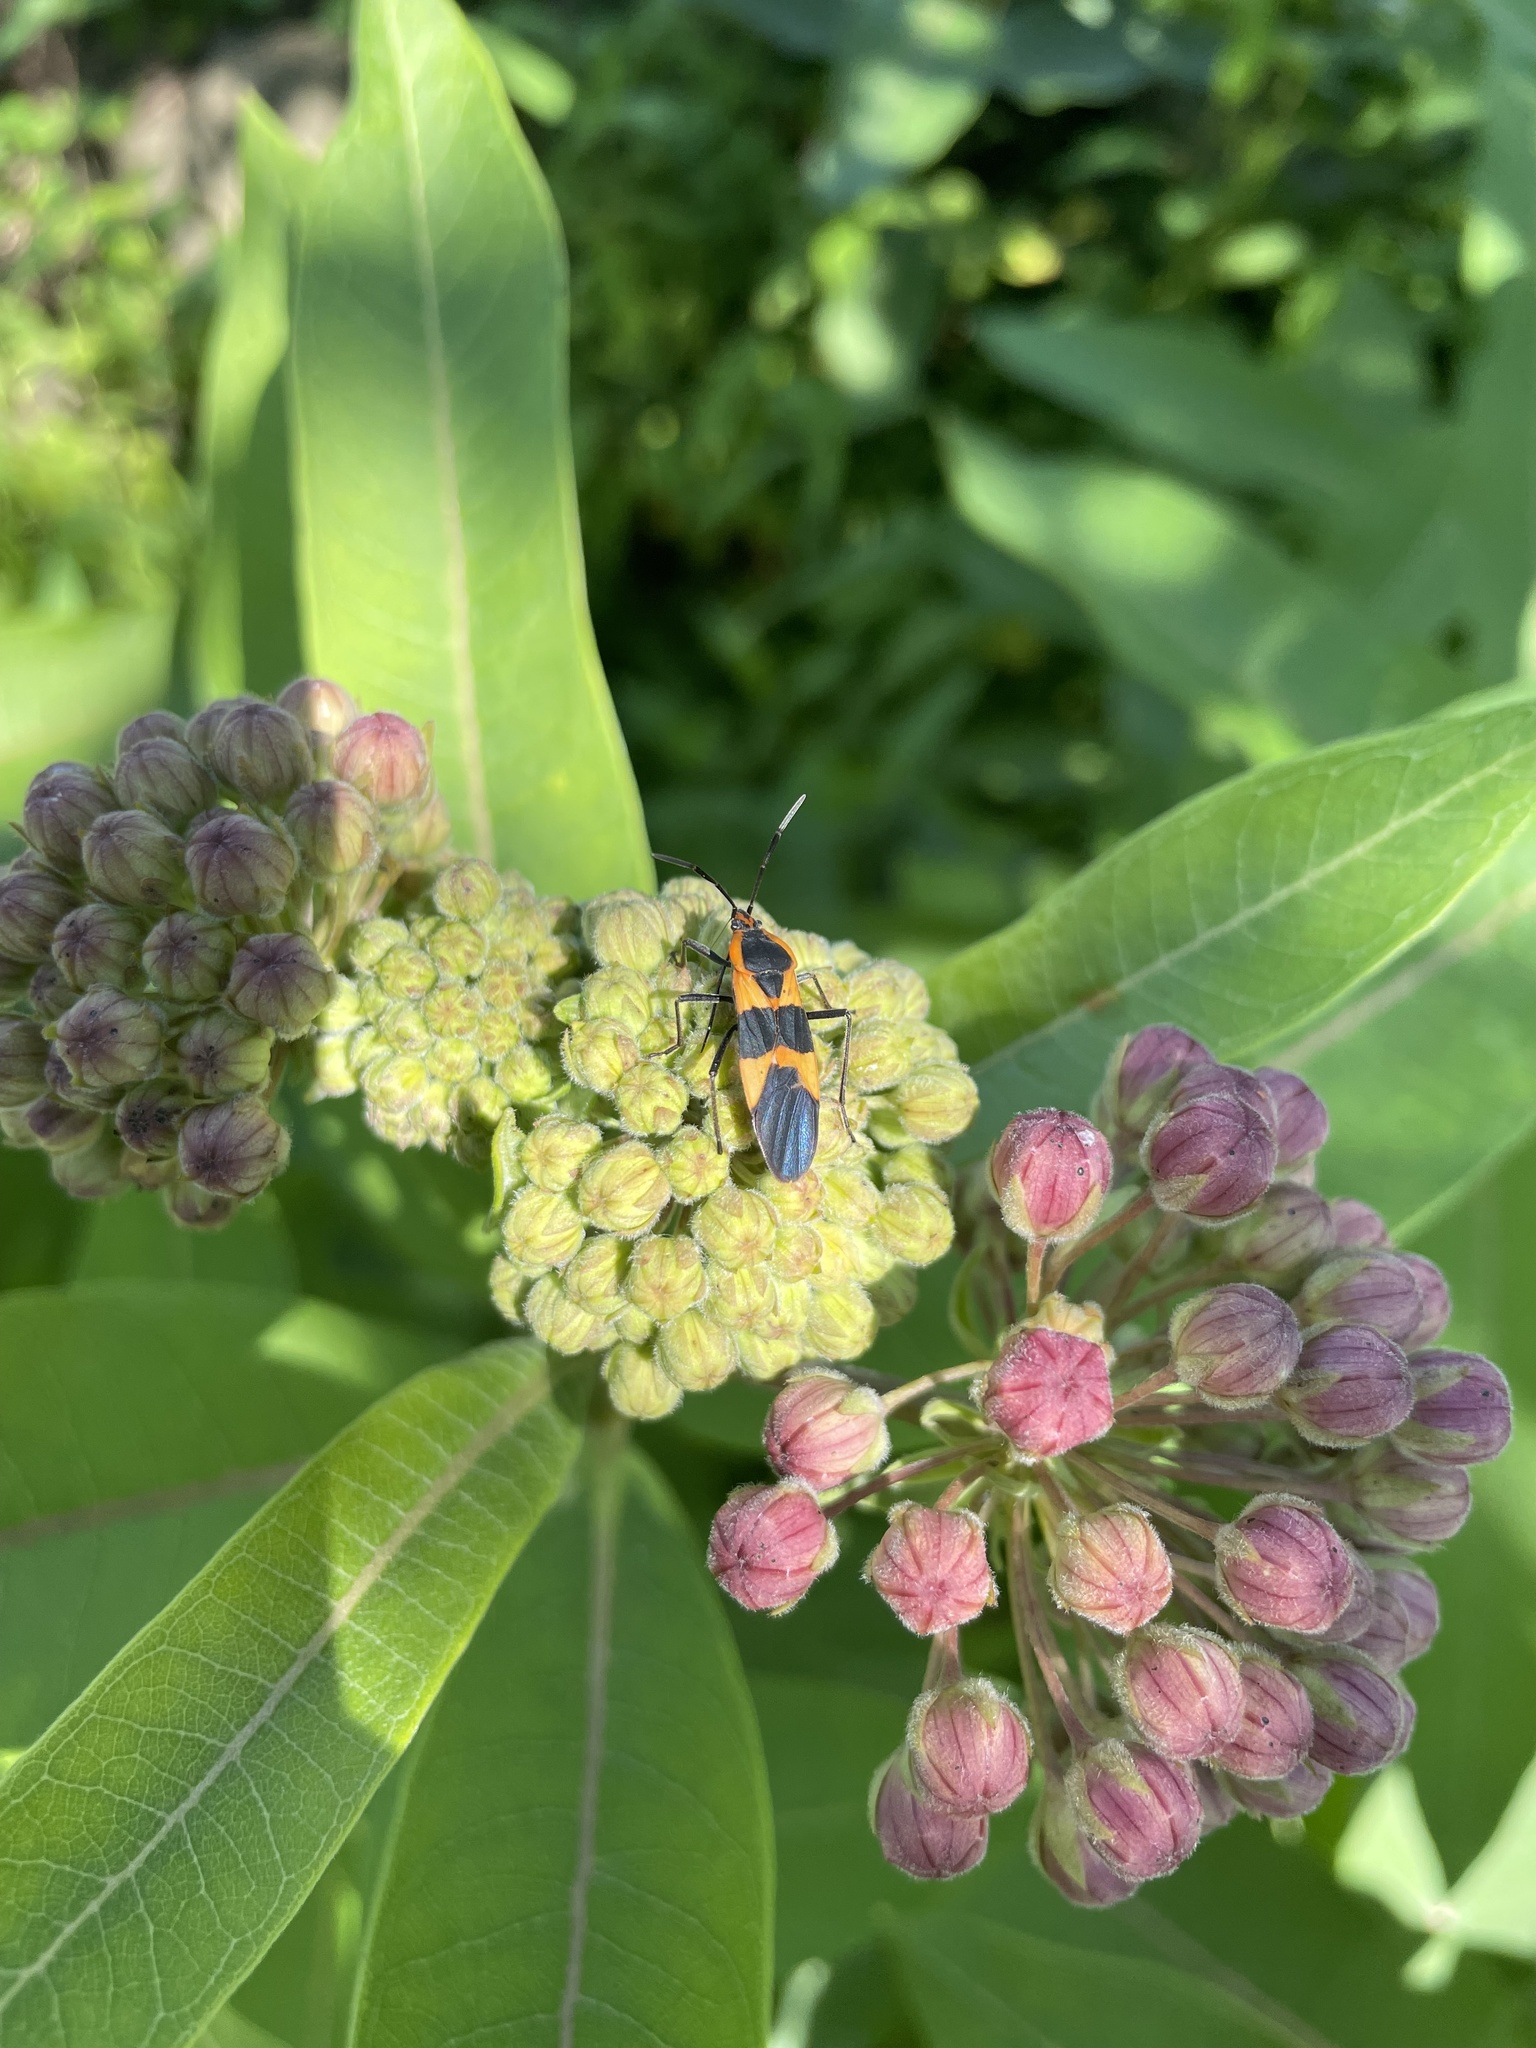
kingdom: Animalia
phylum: Arthropoda
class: Insecta
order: Hemiptera
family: Lygaeidae
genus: Oncopeltus
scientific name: Oncopeltus fasciatus
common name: Large milkweed bug
